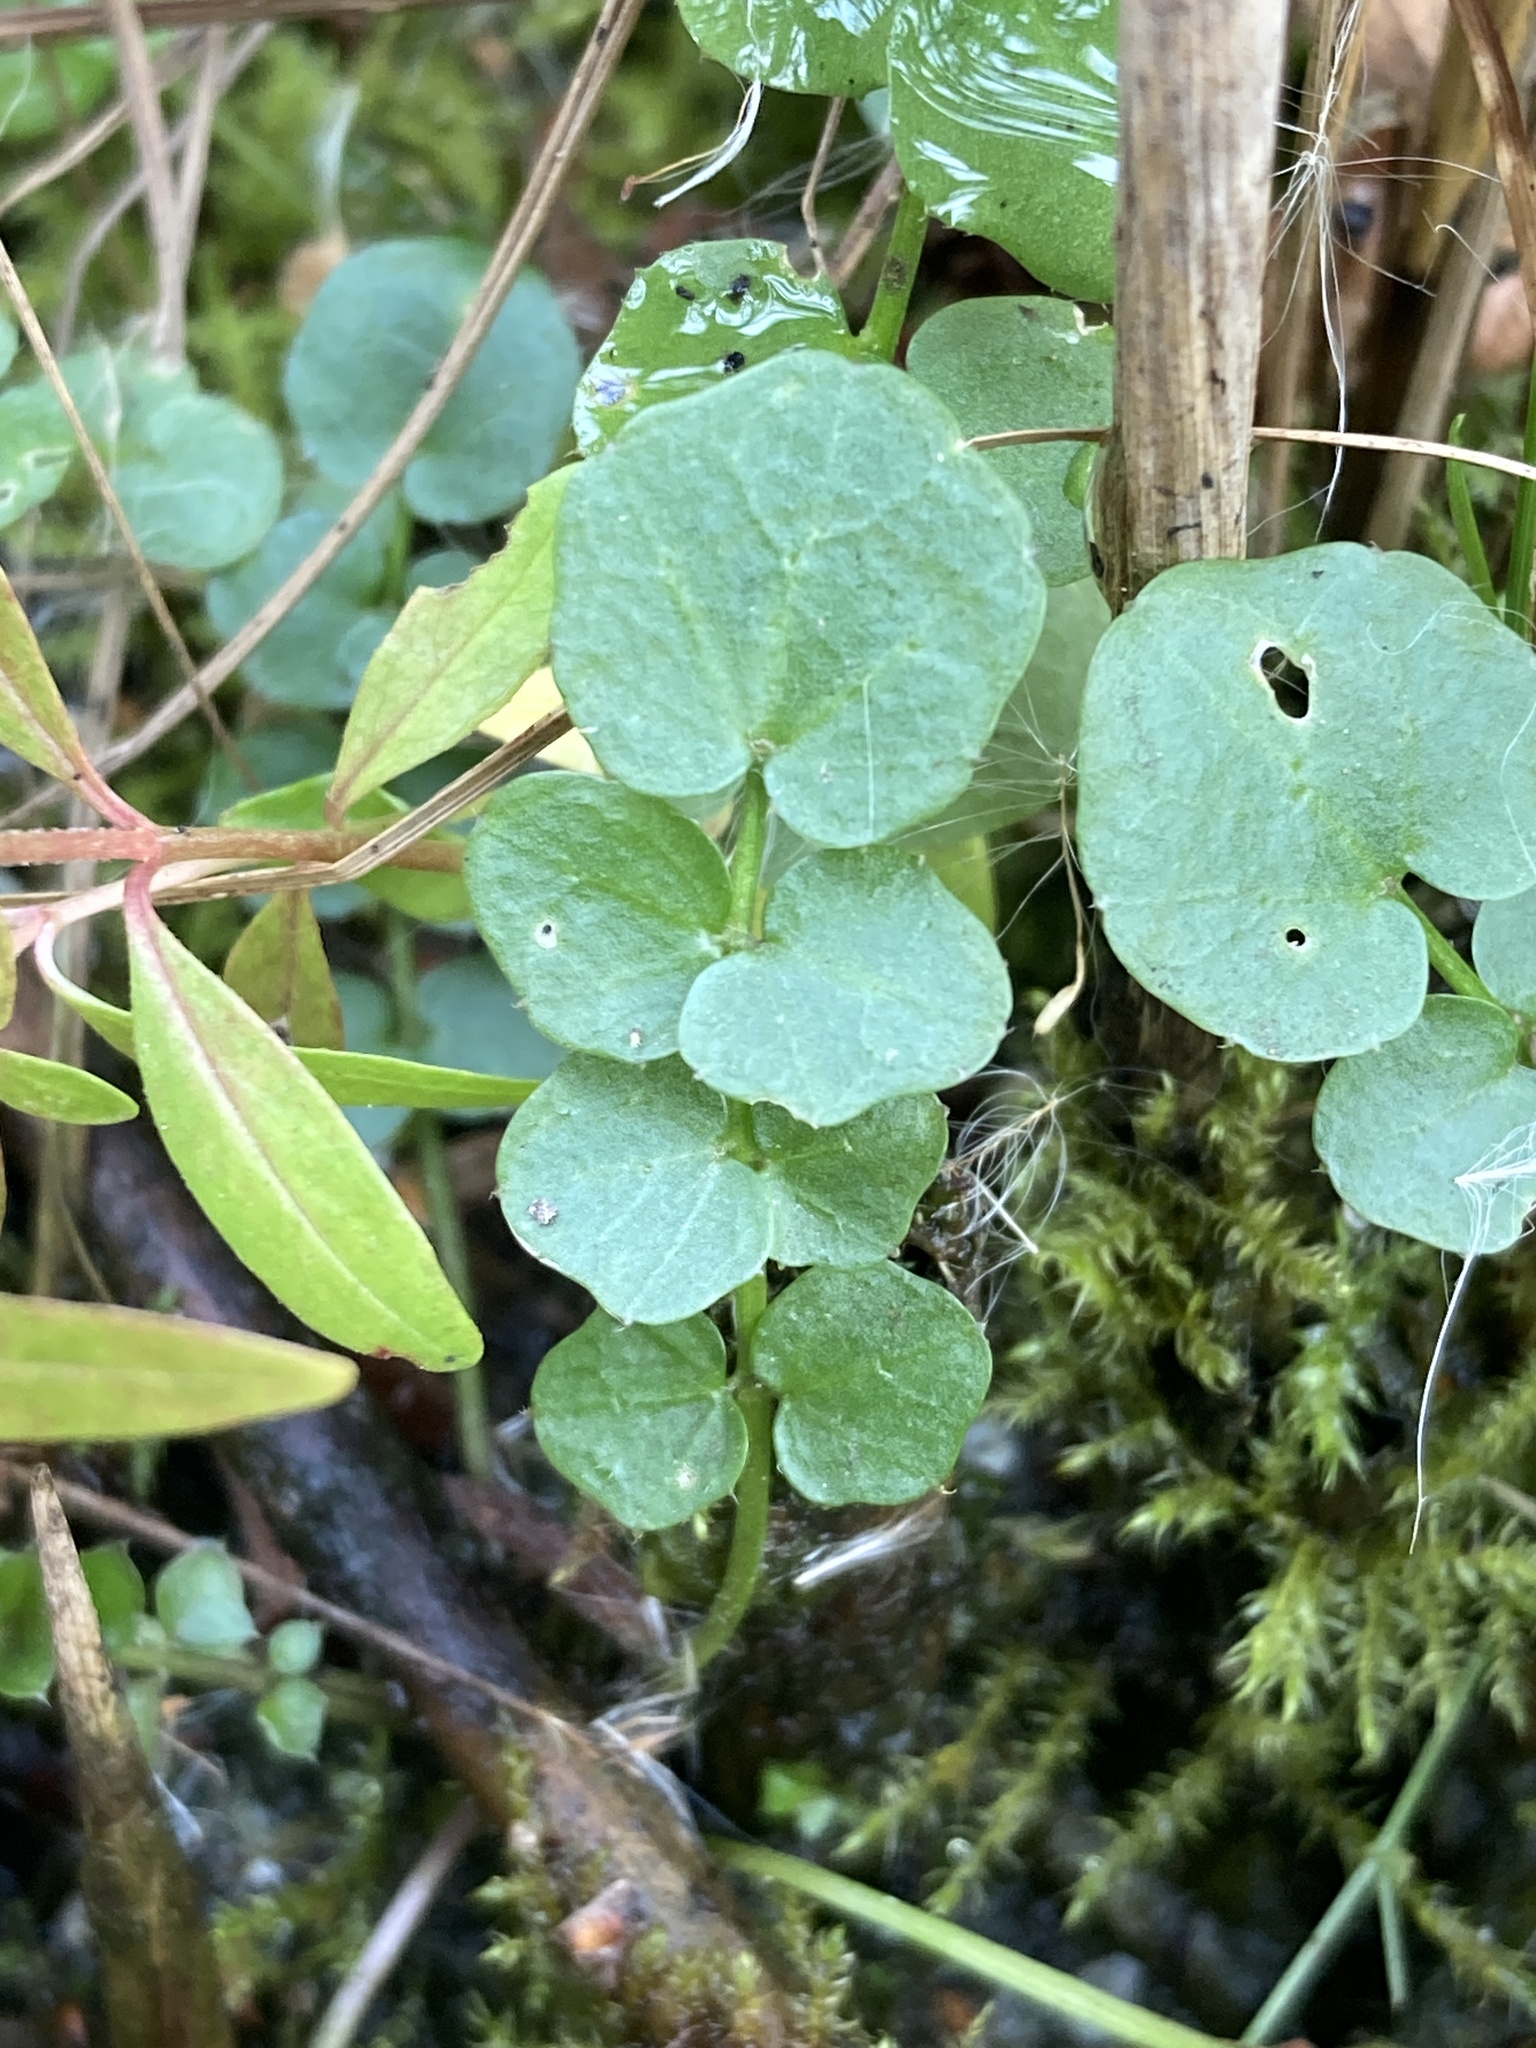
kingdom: Plantae
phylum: Tracheophyta
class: Magnoliopsida
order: Brassicales
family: Brassicaceae
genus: Cardamine
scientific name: Cardamine dentata
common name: Toothed bittercress
